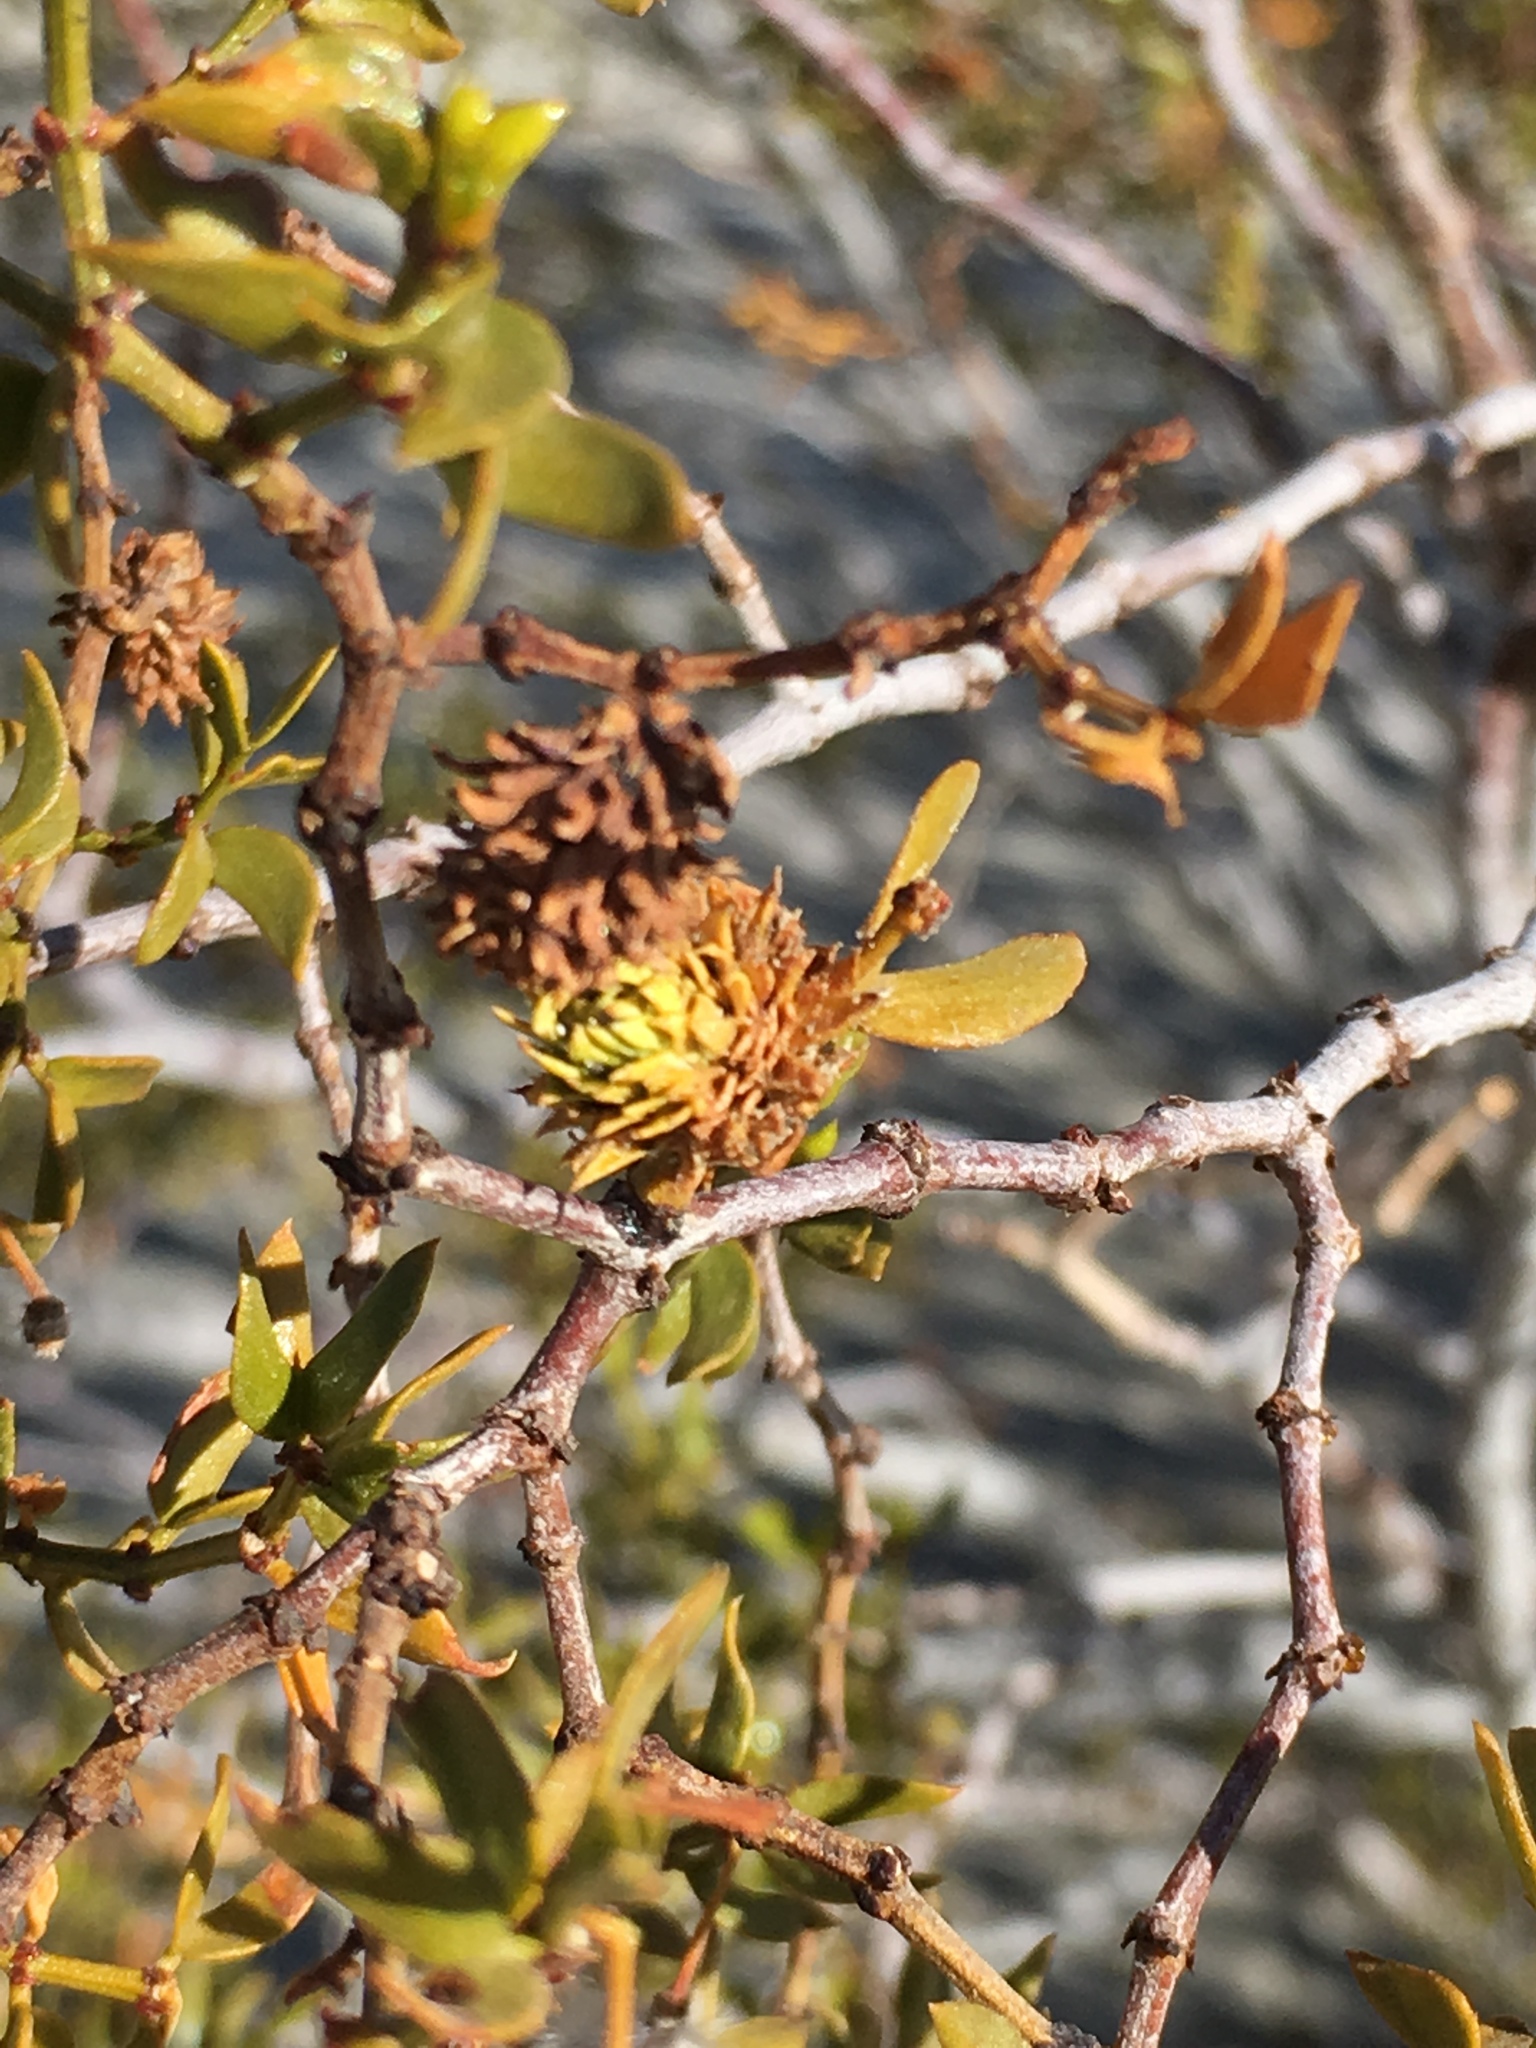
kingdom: Plantae
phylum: Tracheophyta
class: Magnoliopsida
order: Zygophyllales
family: Zygophyllaceae
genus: Larrea
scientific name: Larrea tridentata
